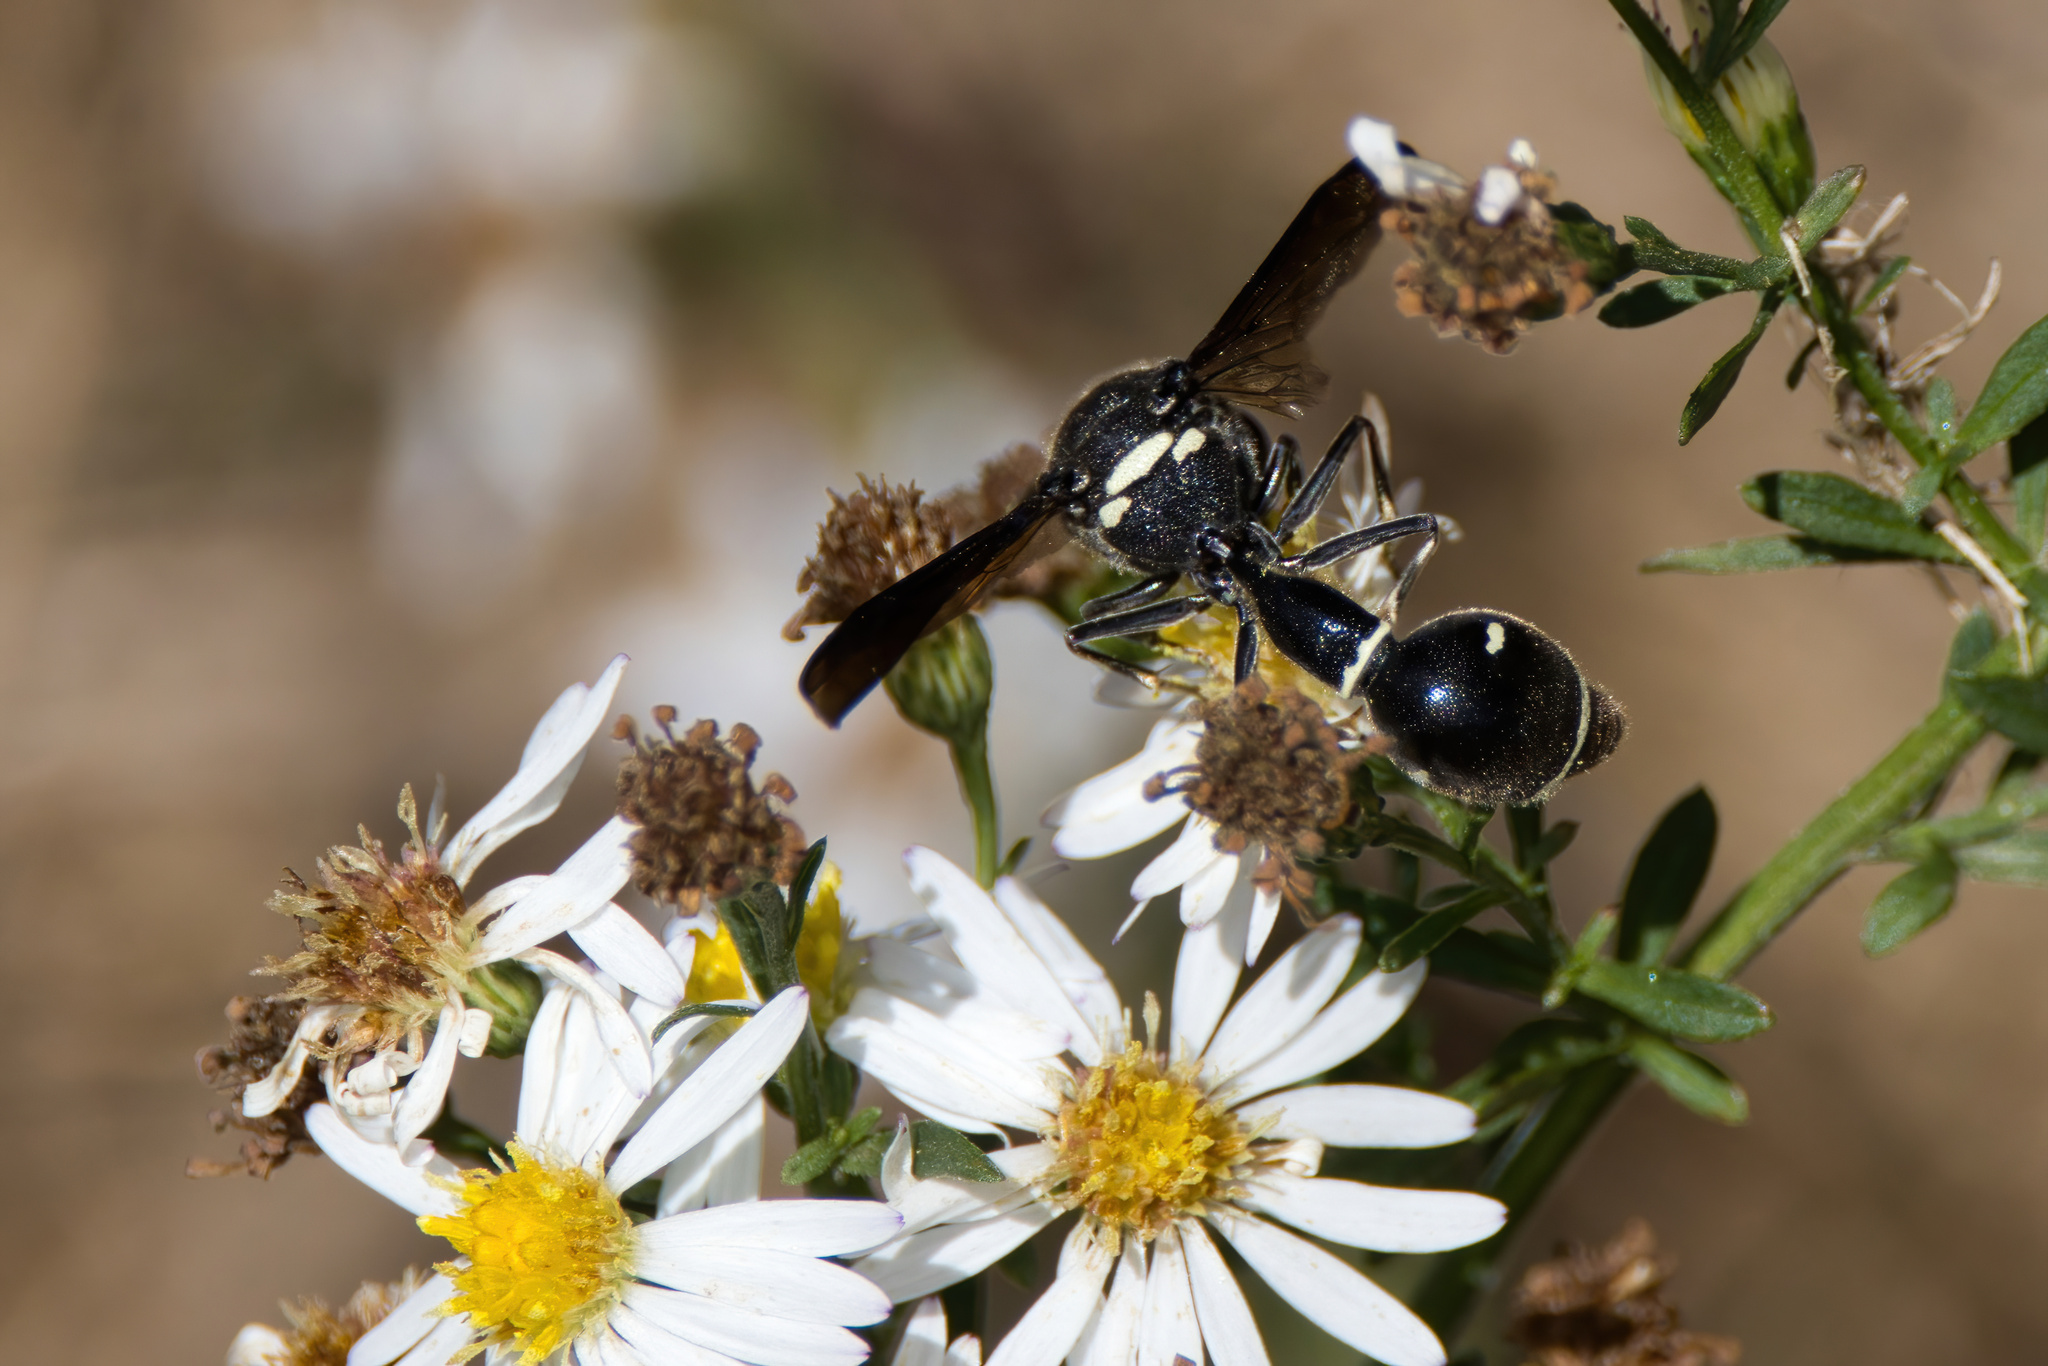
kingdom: Animalia
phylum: Arthropoda
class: Insecta
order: Hymenoptera
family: Vespidae
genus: Eumenes
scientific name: Eumenes fraternus
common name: Fraternal potter wasp
